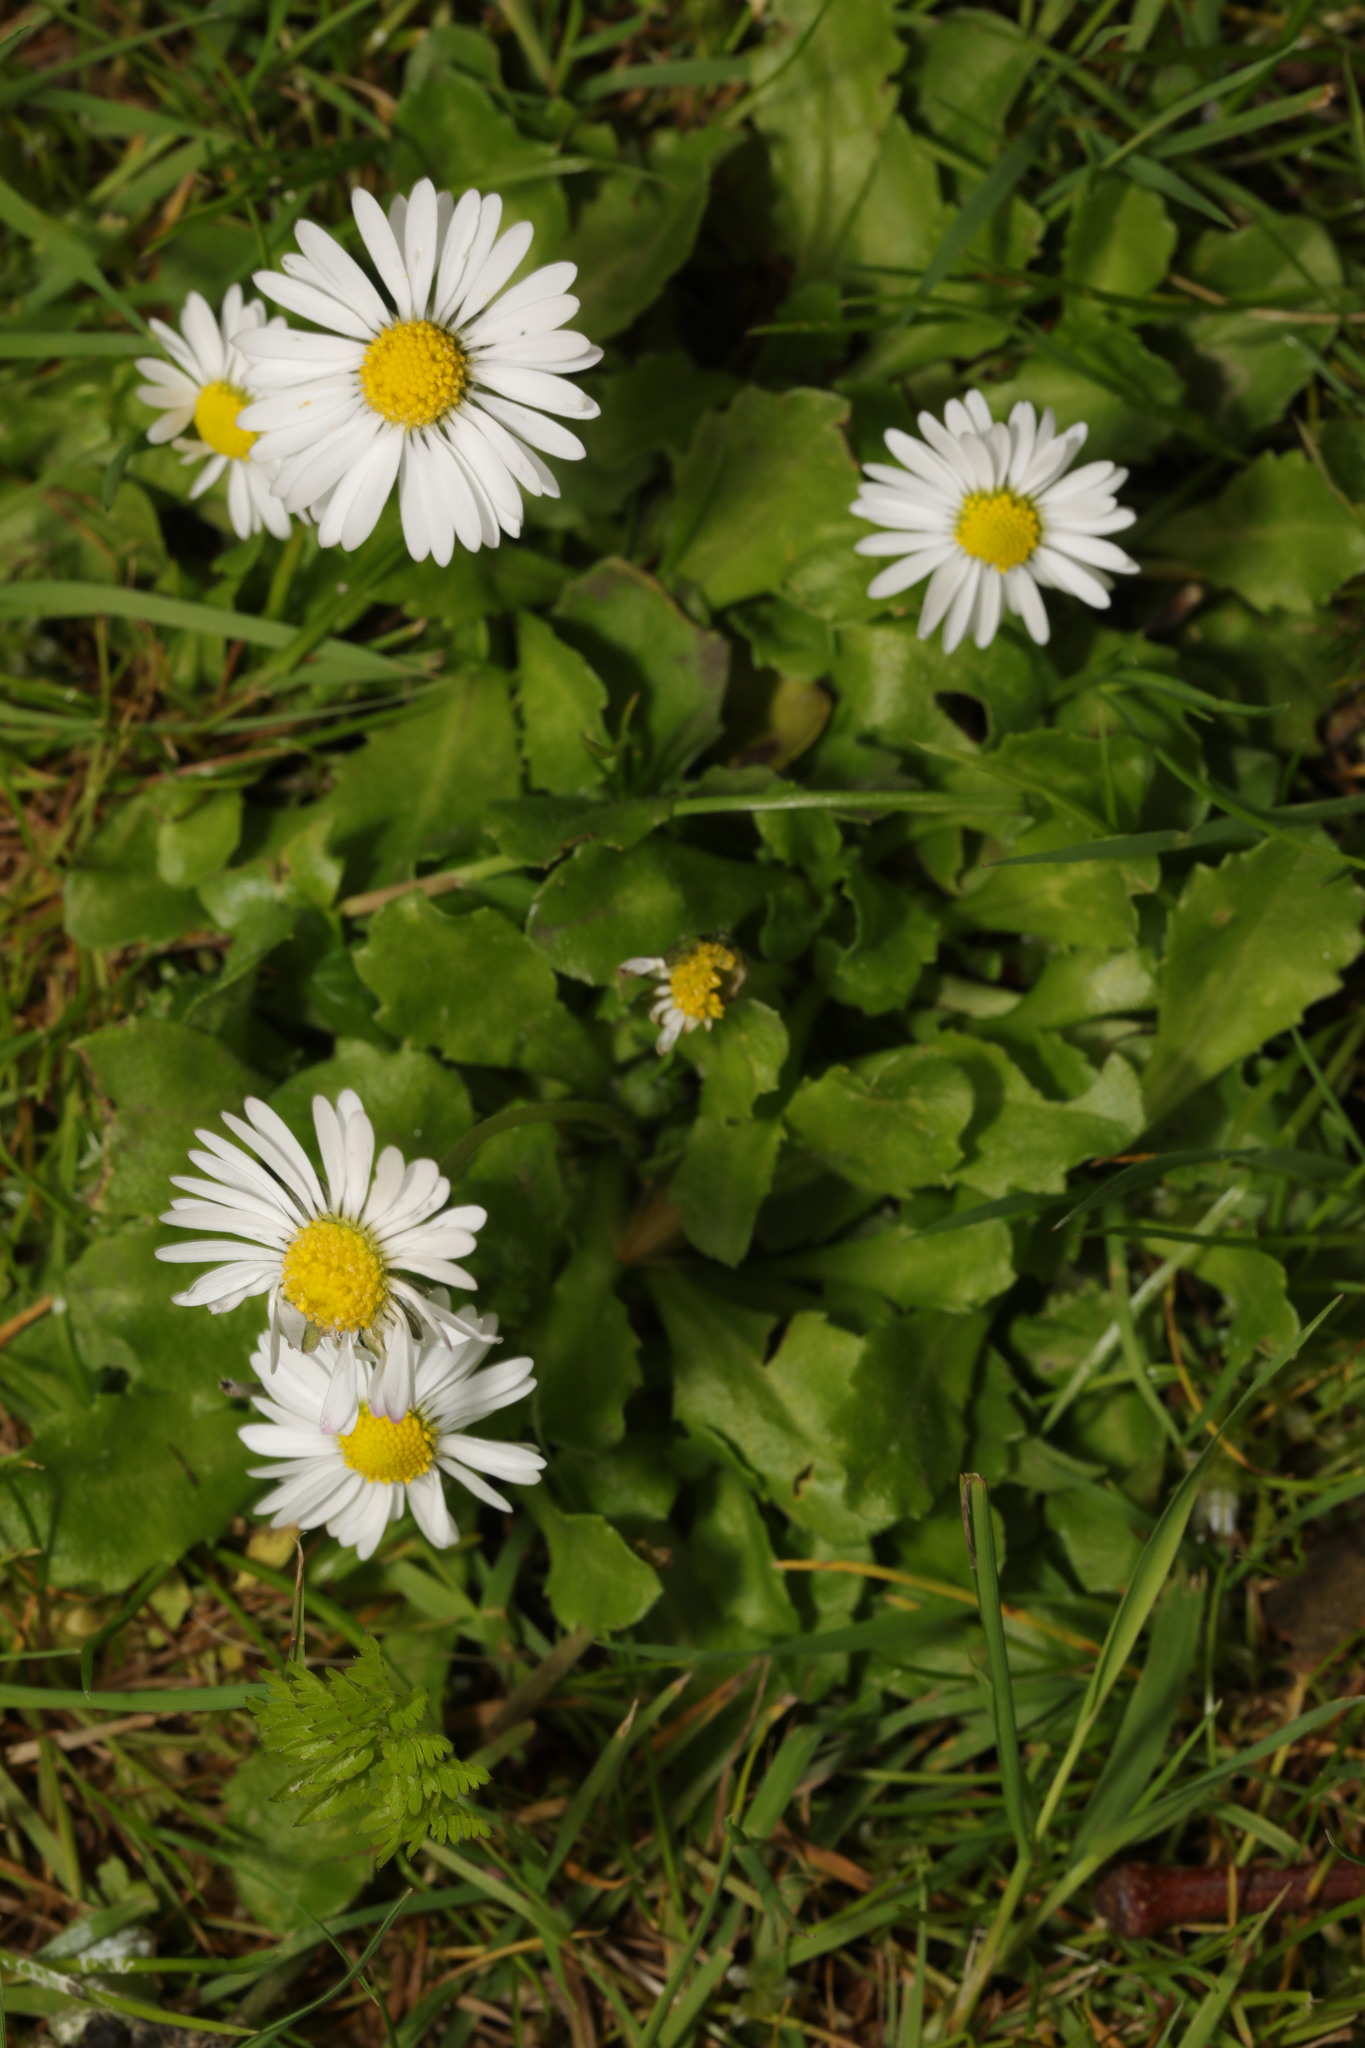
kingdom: Plantae
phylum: Tracheophyta
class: Magnoliopsida
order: Asterales
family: Asteraceae
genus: Bellis
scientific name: Bellis perennis
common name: Lawndaisy
